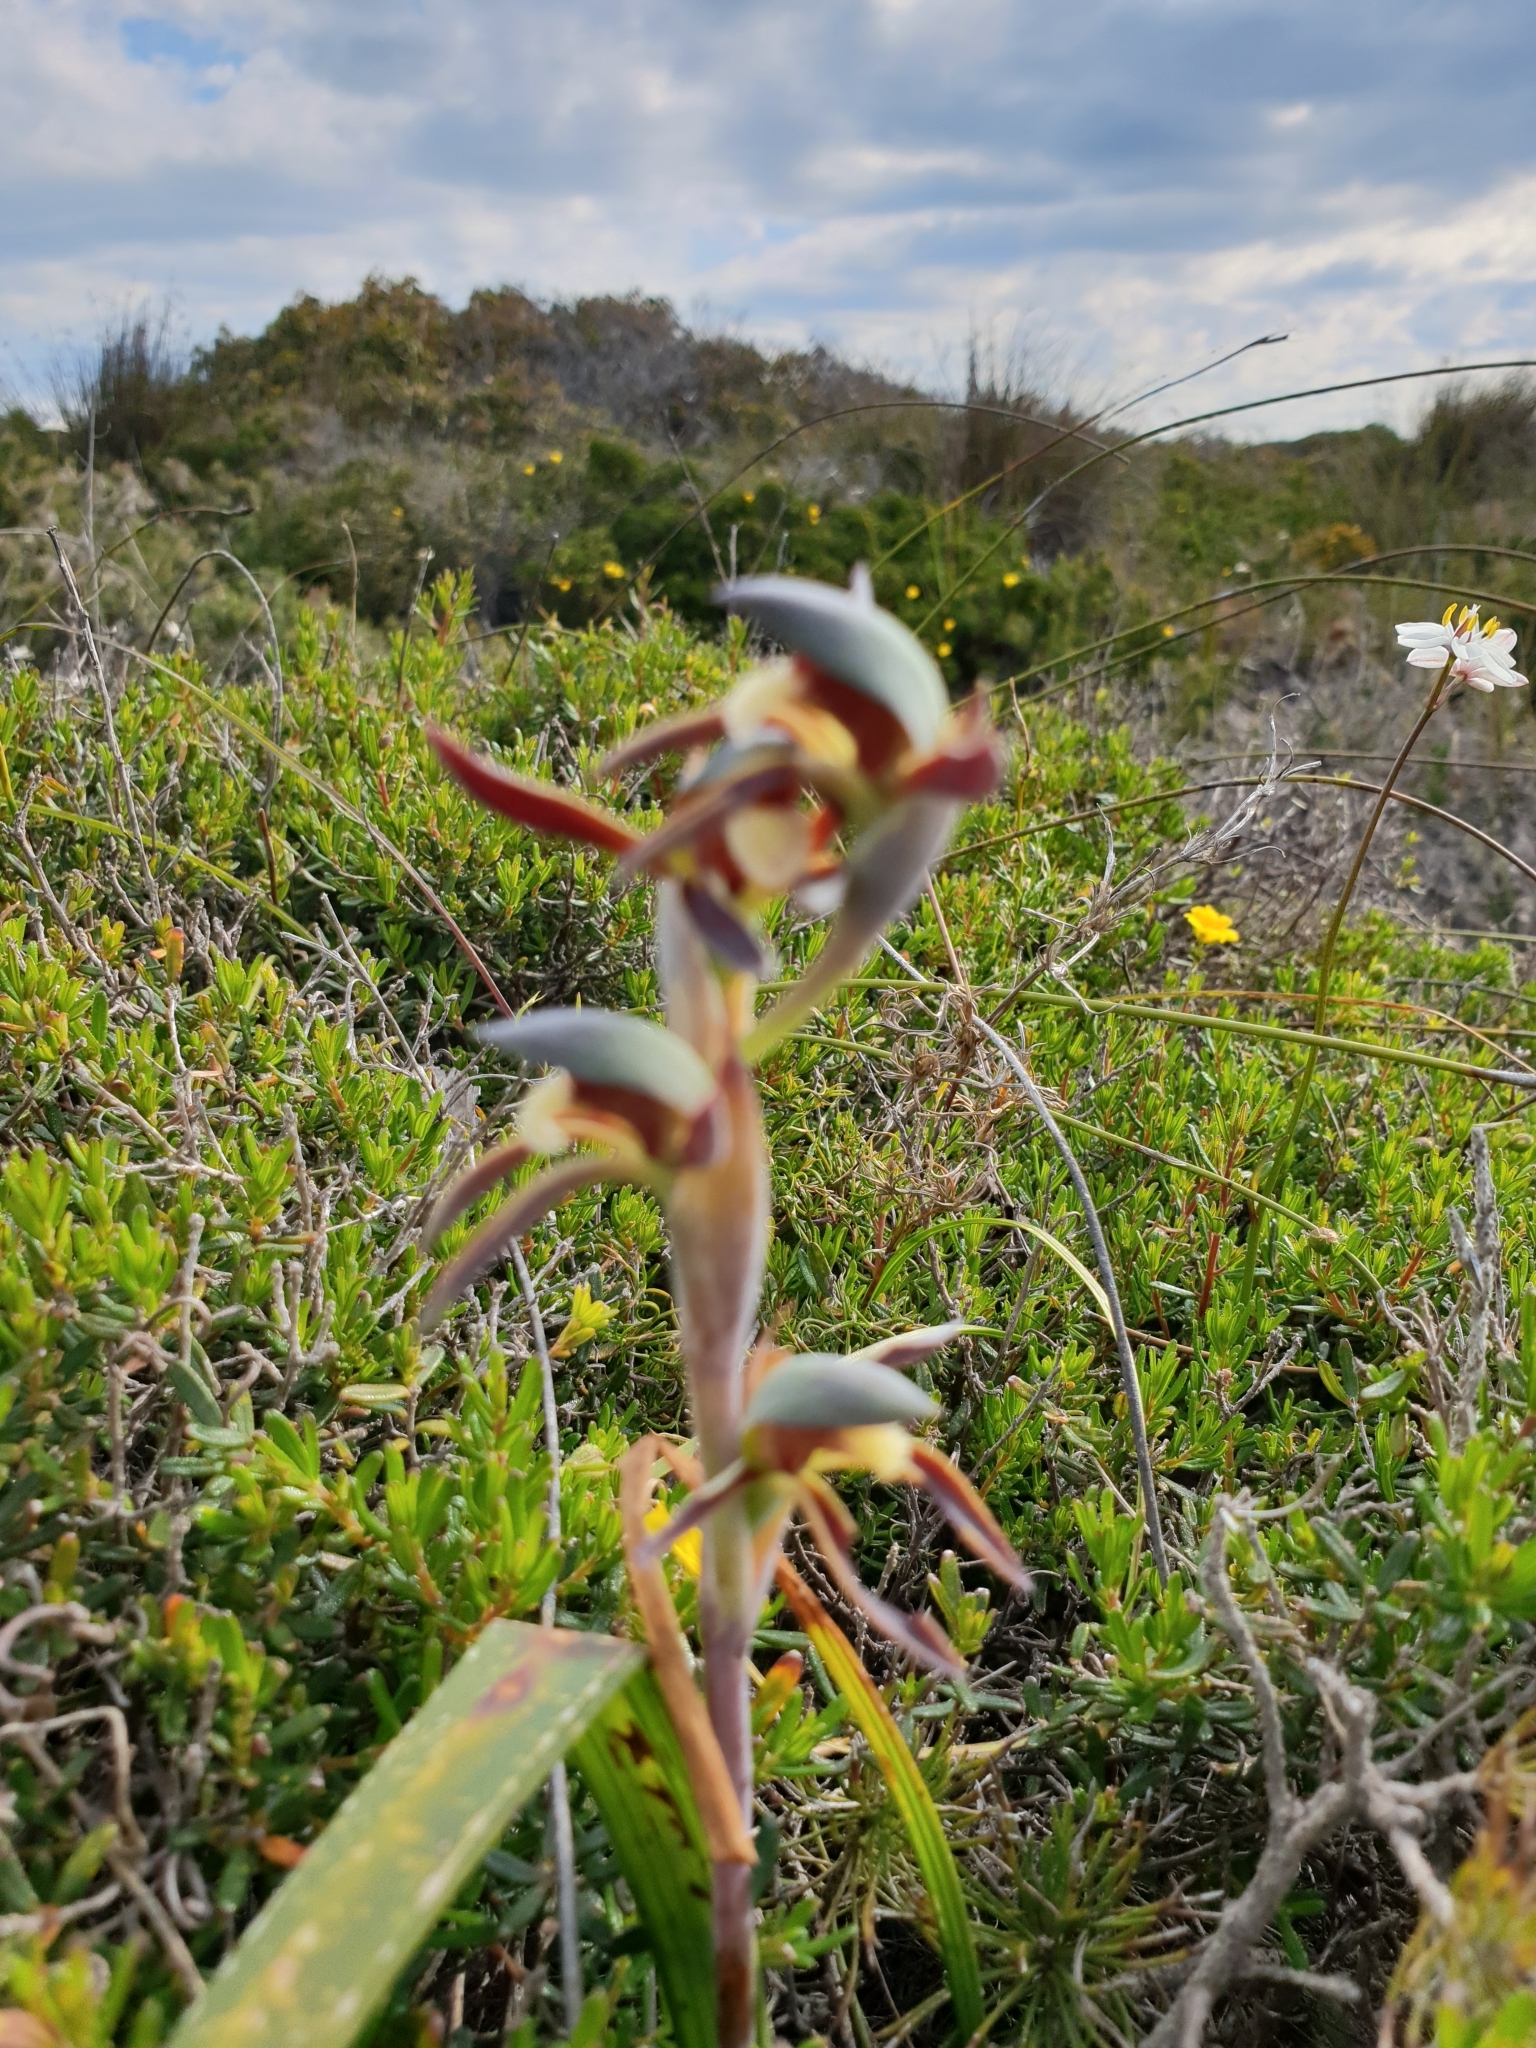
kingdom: Plantae
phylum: Tracheophyta
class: Liliopsida
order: Asparagales
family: Orchidaceae
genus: Lyperanthus
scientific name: Lyperanthus serratus
